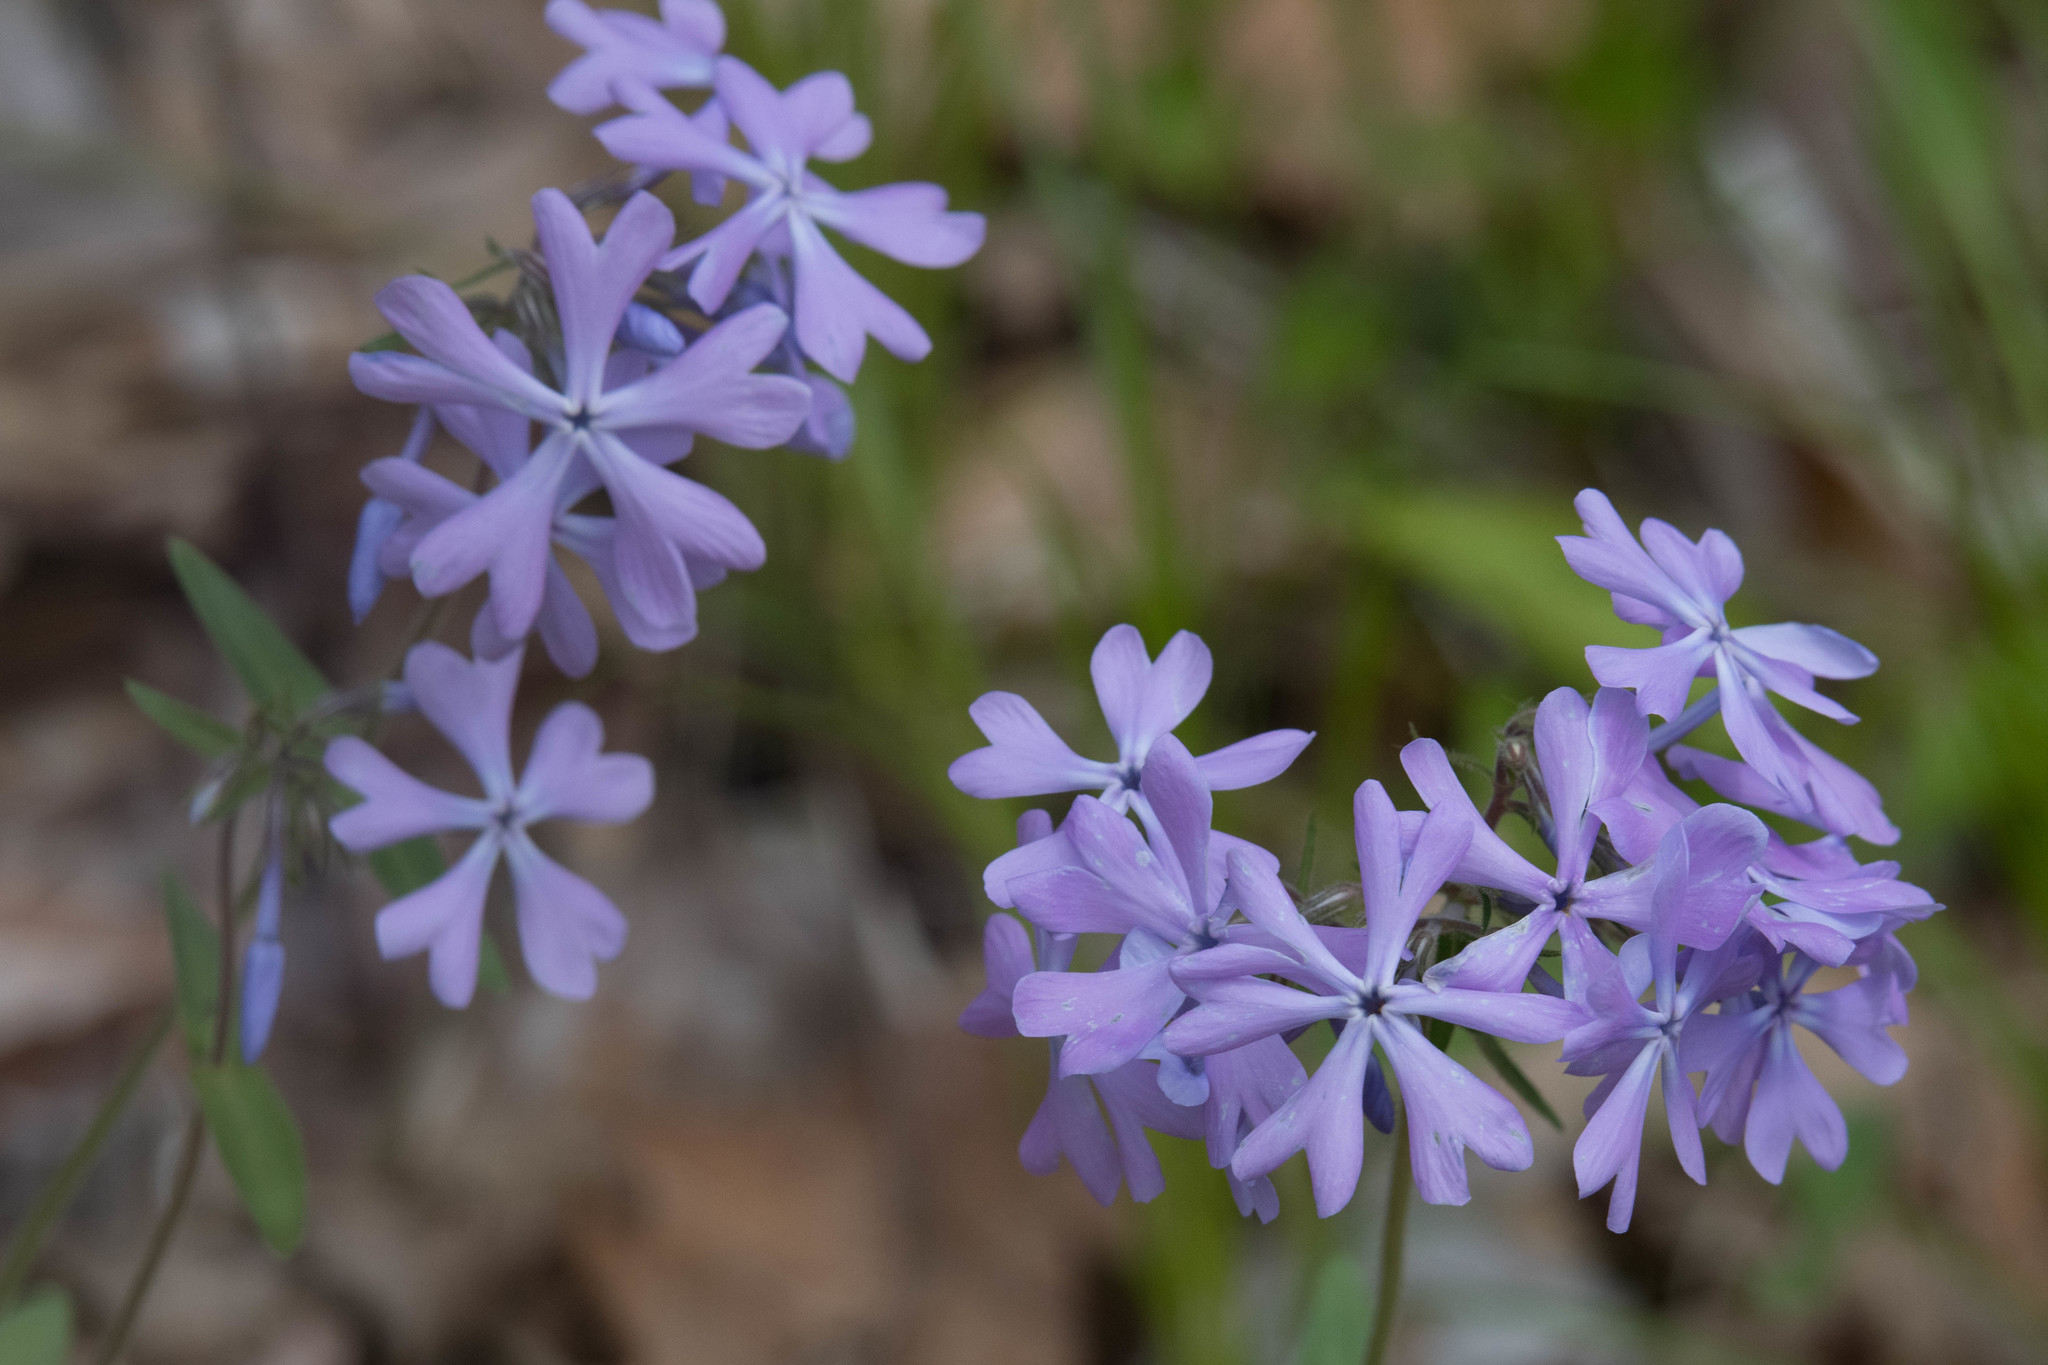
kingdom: Plantae
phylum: Tracheophyta
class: Magnoliopsida
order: Ericales
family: Polemoniaceae
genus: Phlox
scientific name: Phlox divaricata
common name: Blue phlox
